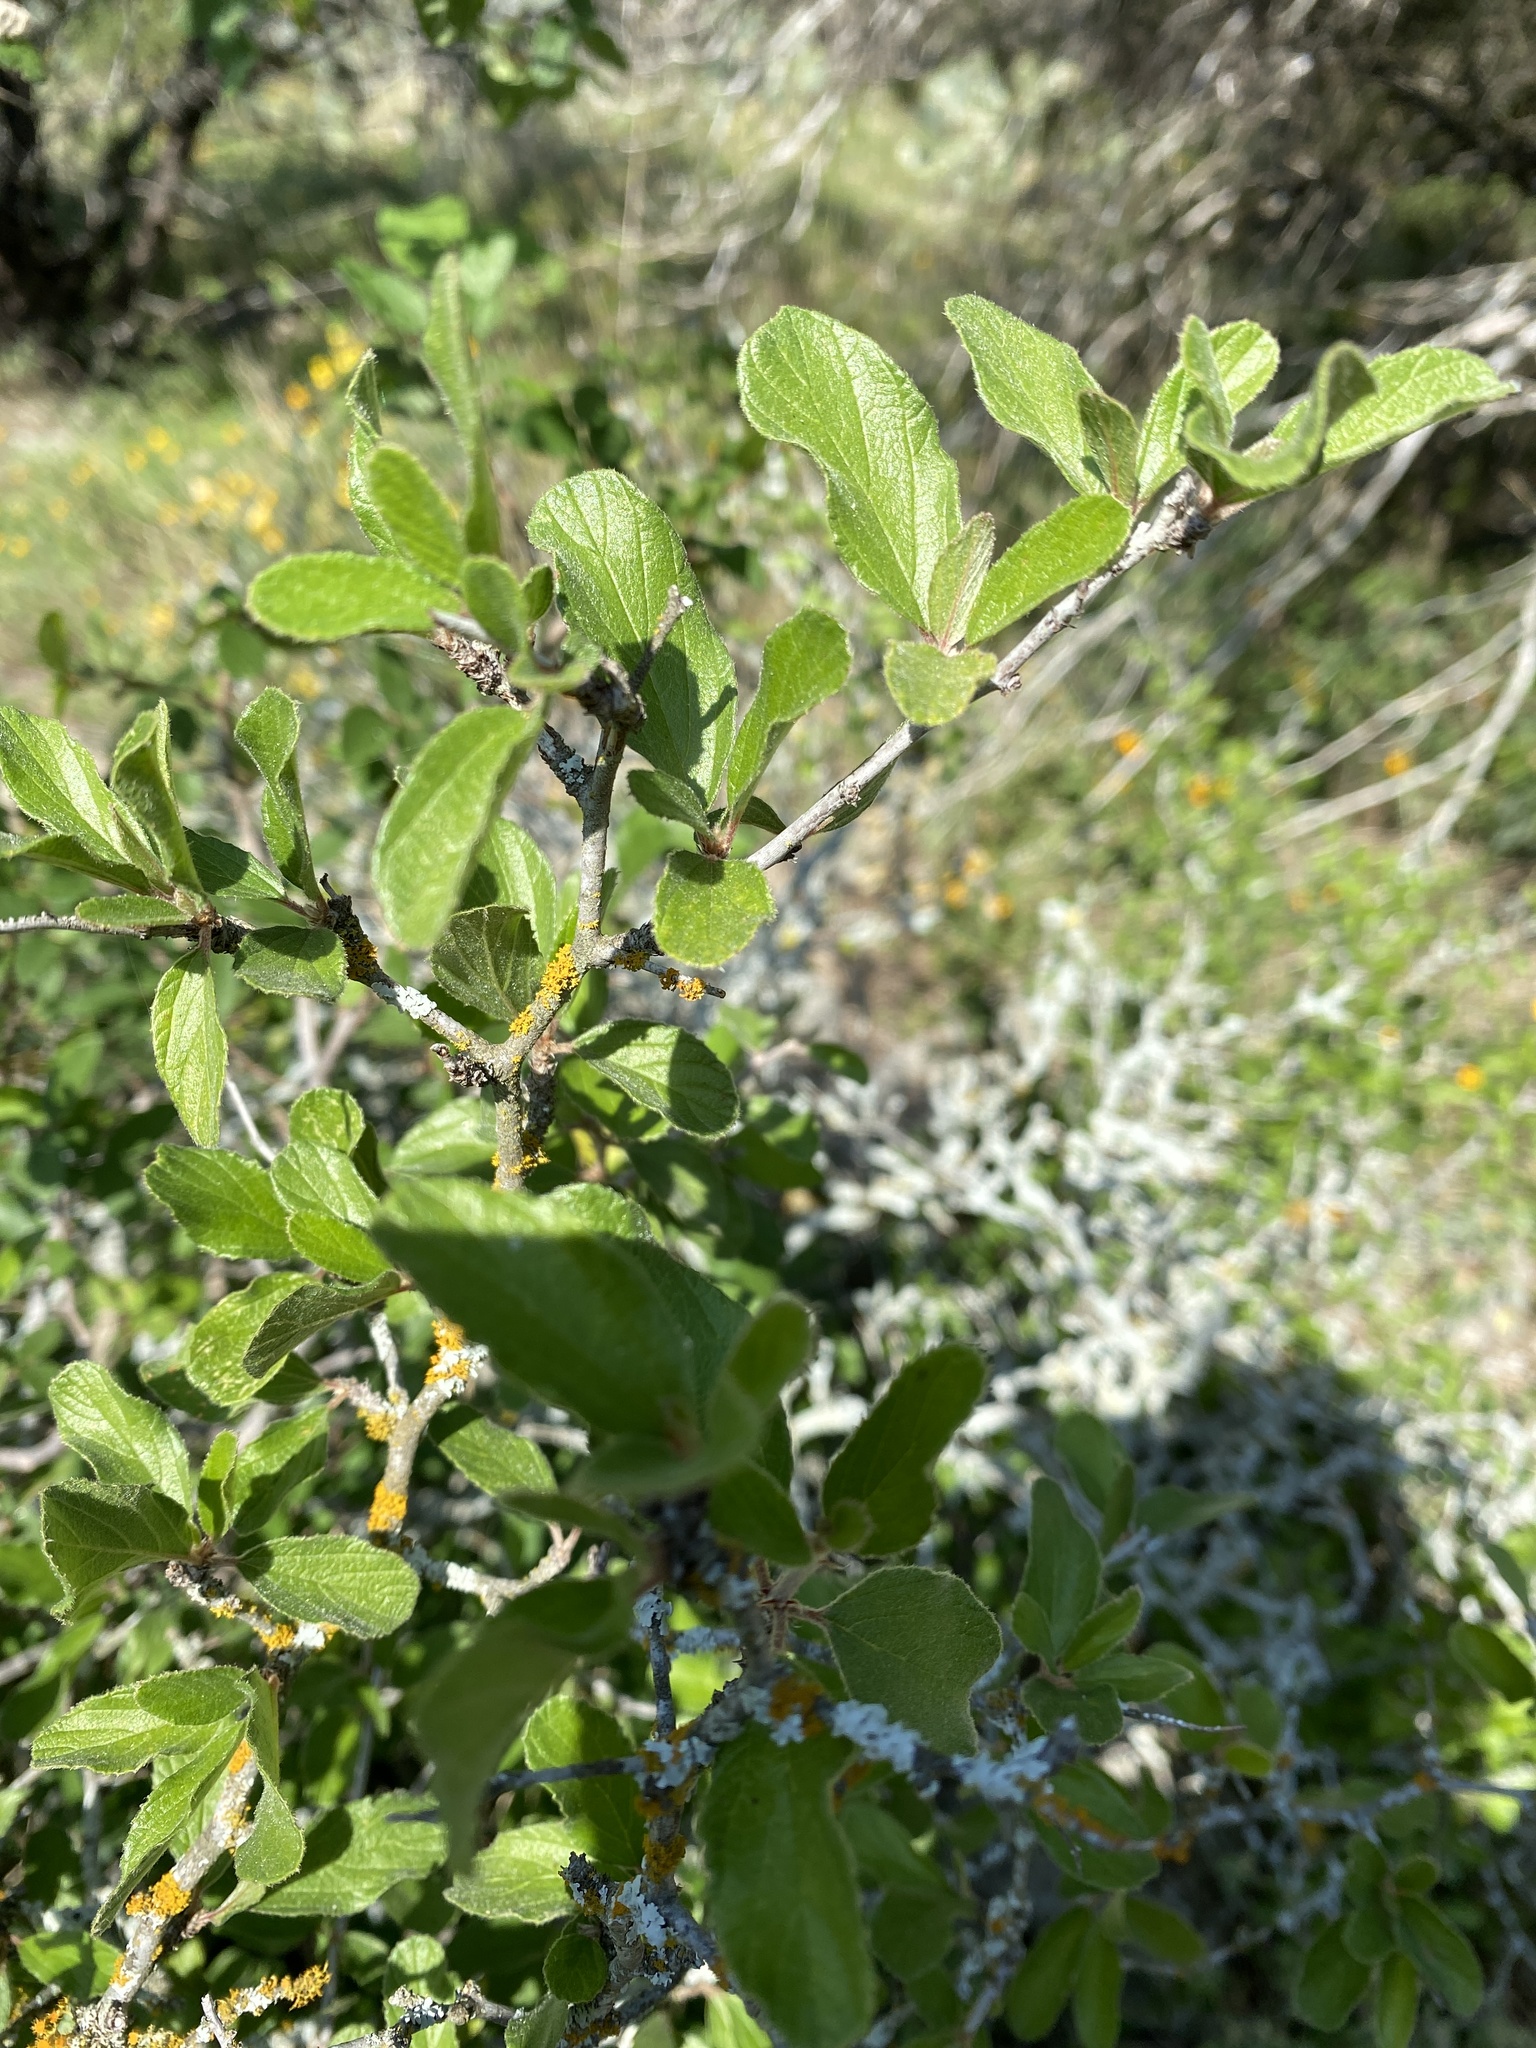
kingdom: Plantae
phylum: Tracheophyta
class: Magnoliopsida
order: Rosales
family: Rhamnaceae
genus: Colubrina
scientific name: Colubrina texensis
